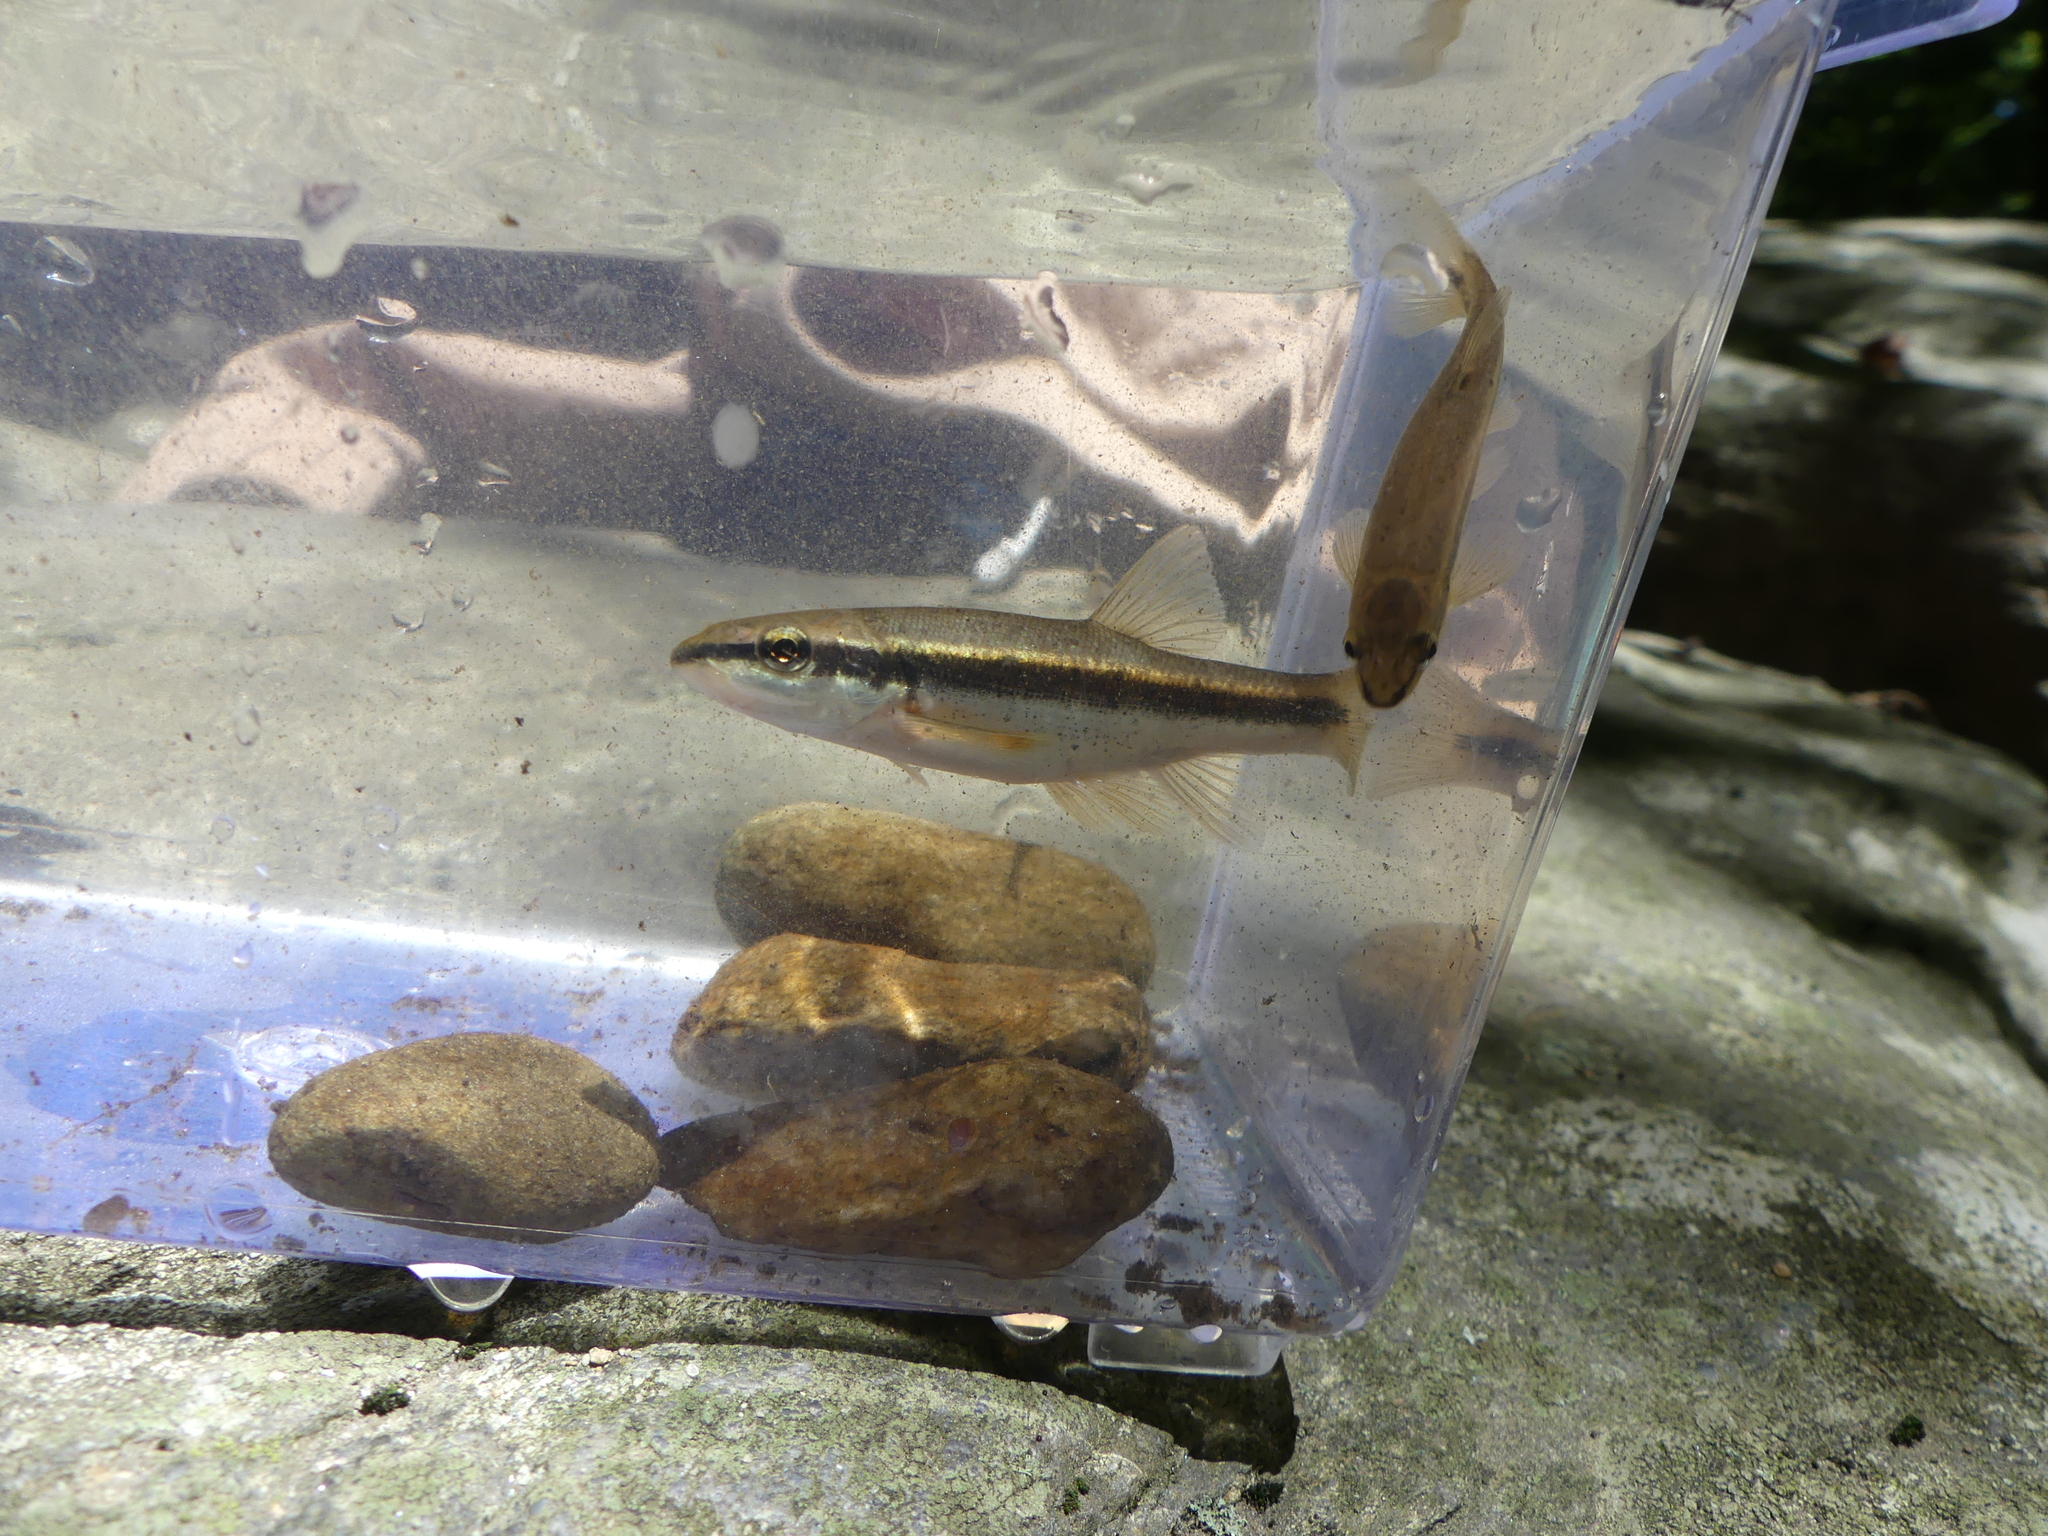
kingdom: Animalia
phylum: Chordata
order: Cypriniformes
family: Cyprinidae
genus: Rhinichthys
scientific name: Rhinichthys atratulus
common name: Eastern blacknose dace
